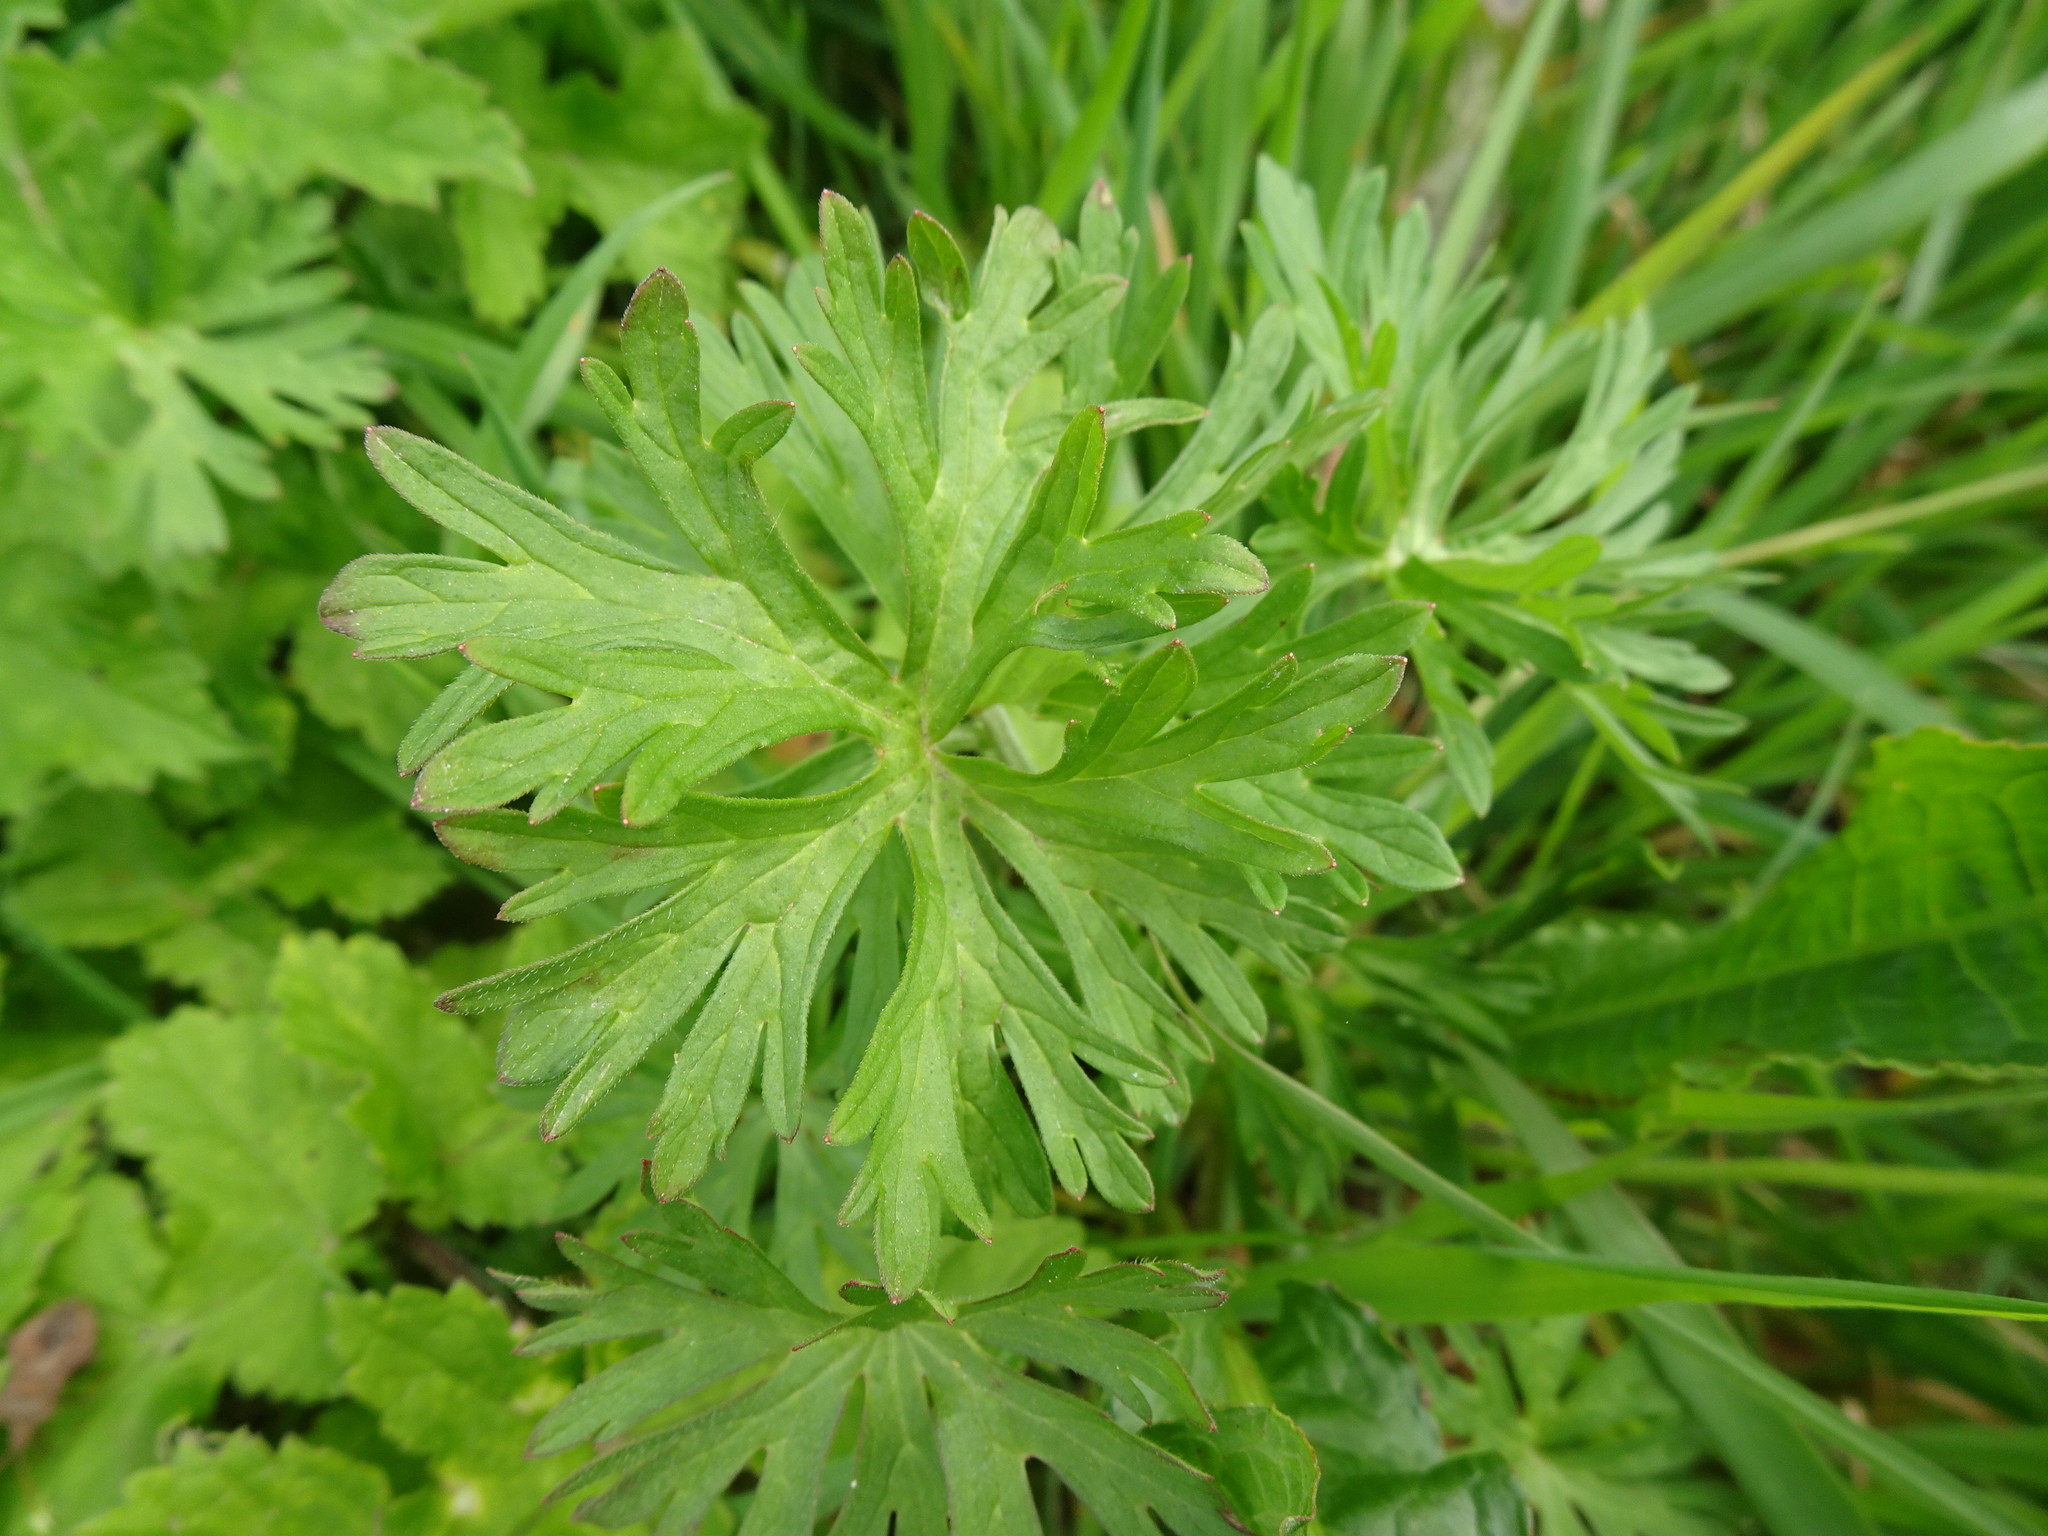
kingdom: Plantae
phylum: Tracheophyta
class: Magnoliopsida
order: Geraniales
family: Geraniaceae
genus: Geranium
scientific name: Geranium dissectum
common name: Cut-leaved crane's-bill
